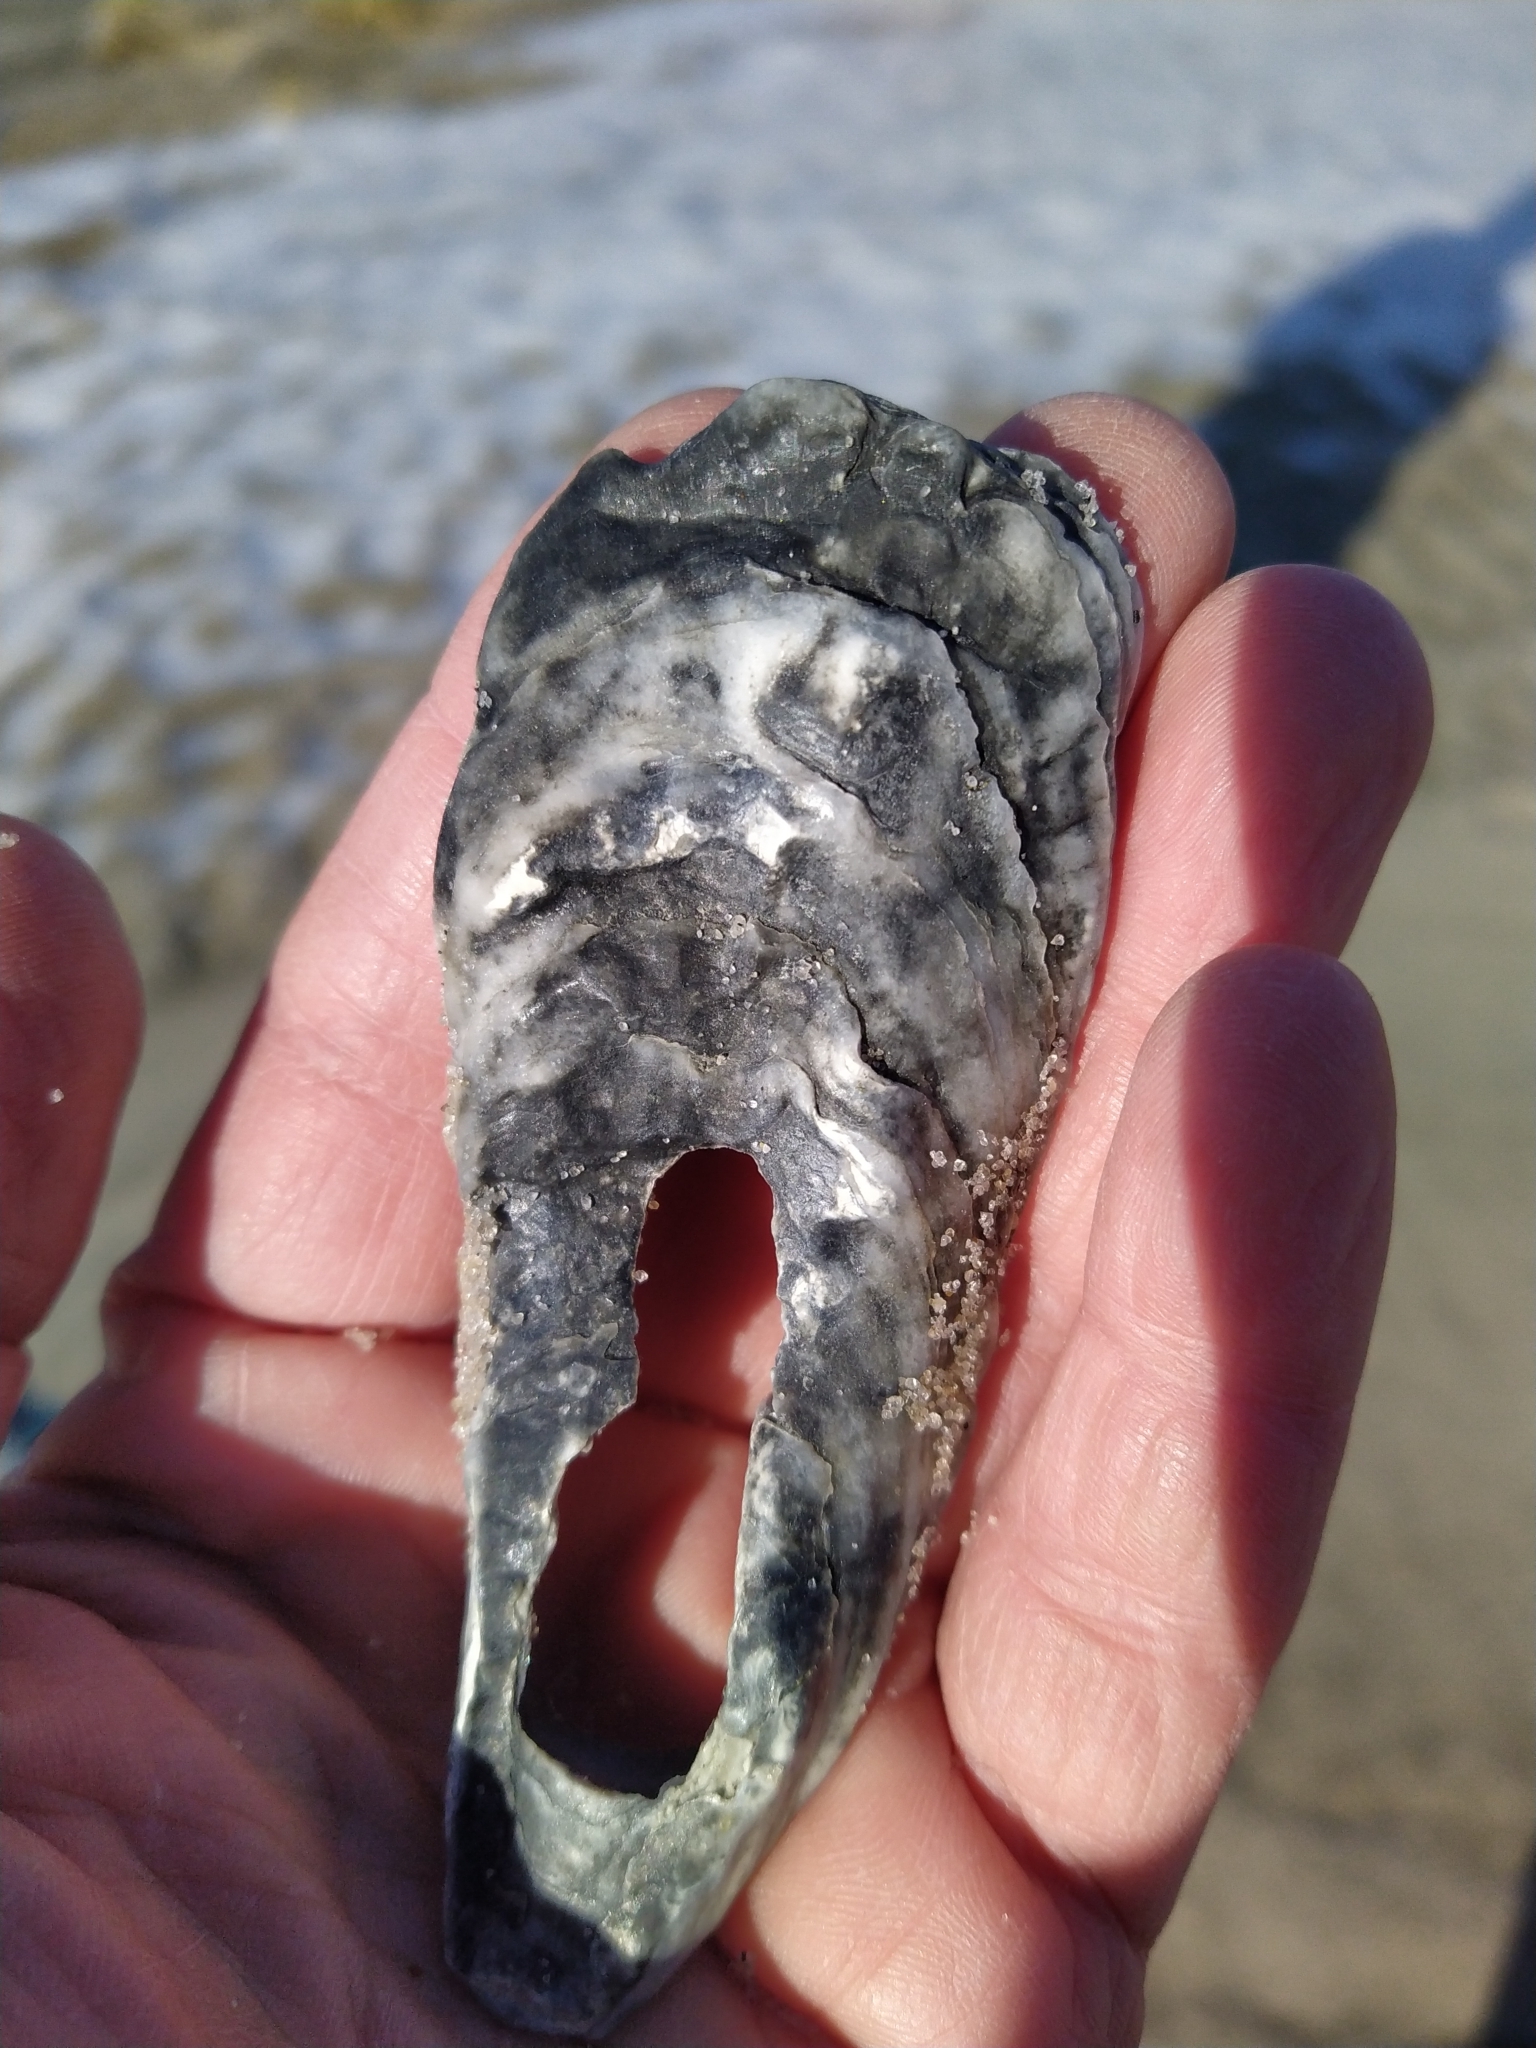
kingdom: Animalia
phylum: Mollusca
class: Bivalvia
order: Ostreida
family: Ostreidae
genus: Crassostrea
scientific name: Crassostrea virginica
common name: American oyster
